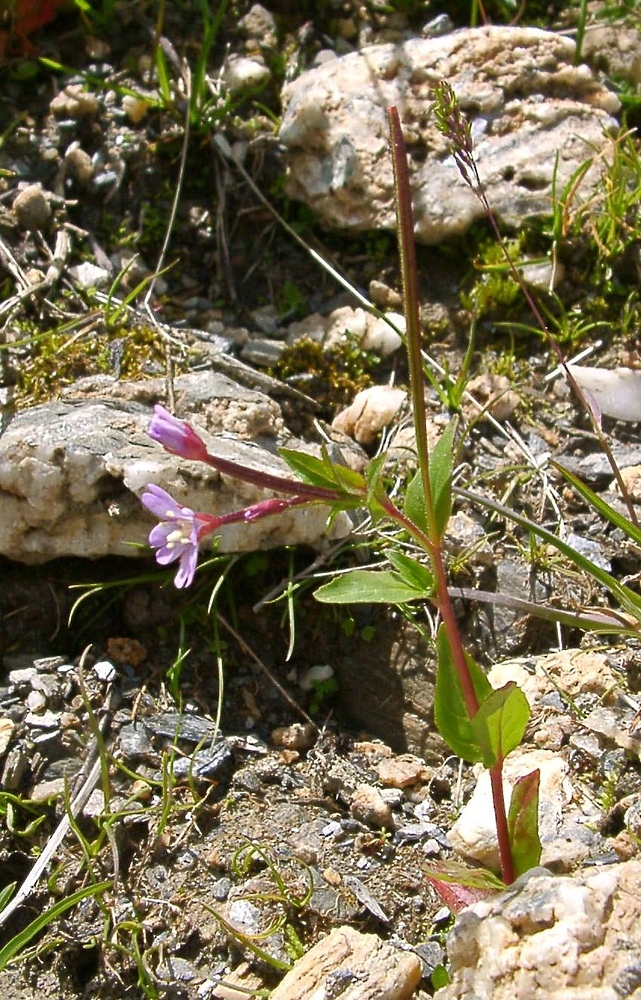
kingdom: Plantae
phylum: Tracheophyta
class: Magnoliopsida
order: Myrtales
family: Onagraceae
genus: Epilobium
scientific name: Epilobium alsinifolium
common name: Chickweed willowherb
